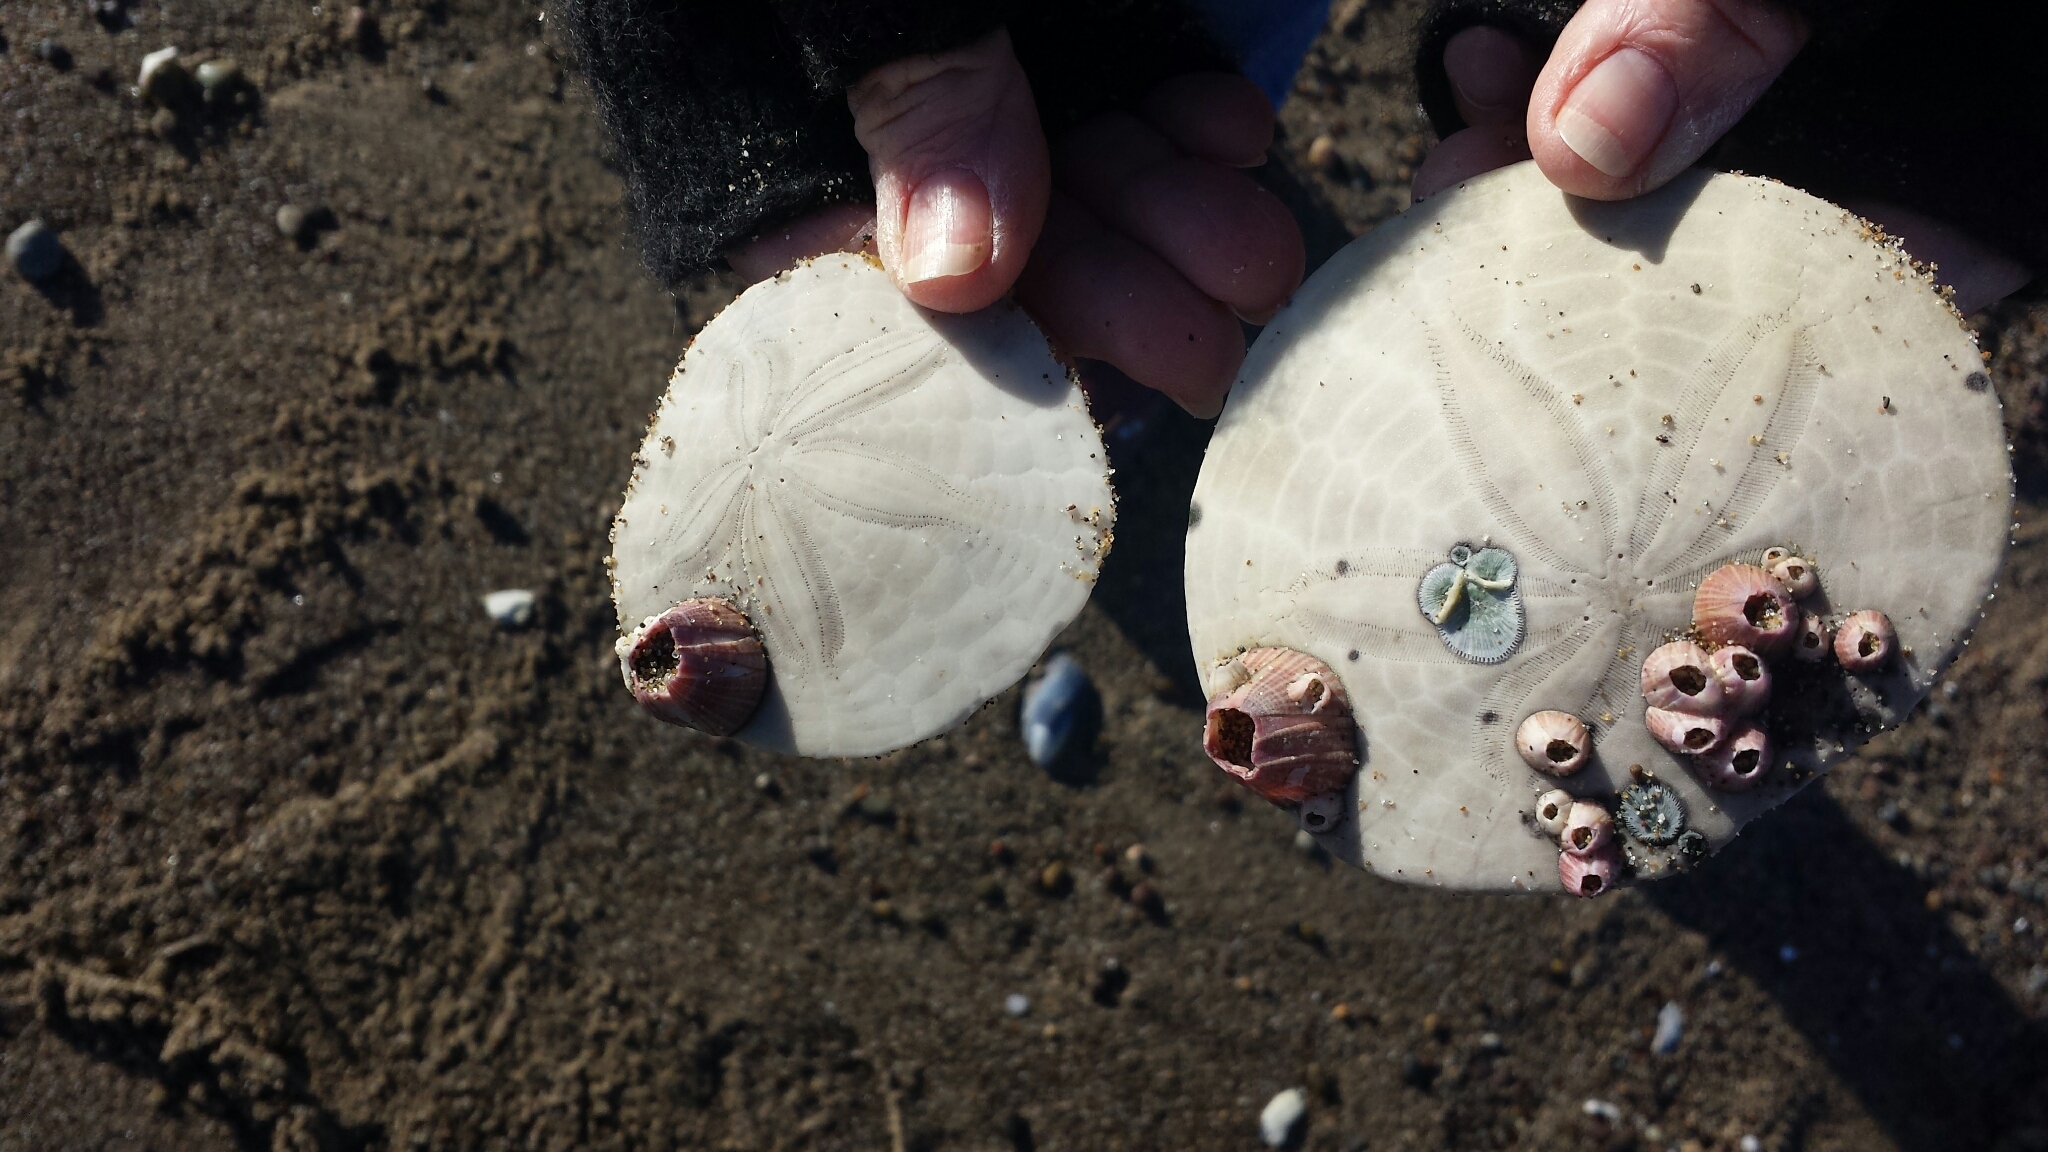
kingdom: Animalia
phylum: Echinodermata
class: Echinoidea
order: Echinolampadacea
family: Dendrasteridae
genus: Dendraster
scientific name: Dendraster excentricus
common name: Eccentric sand dollar sea urchin
